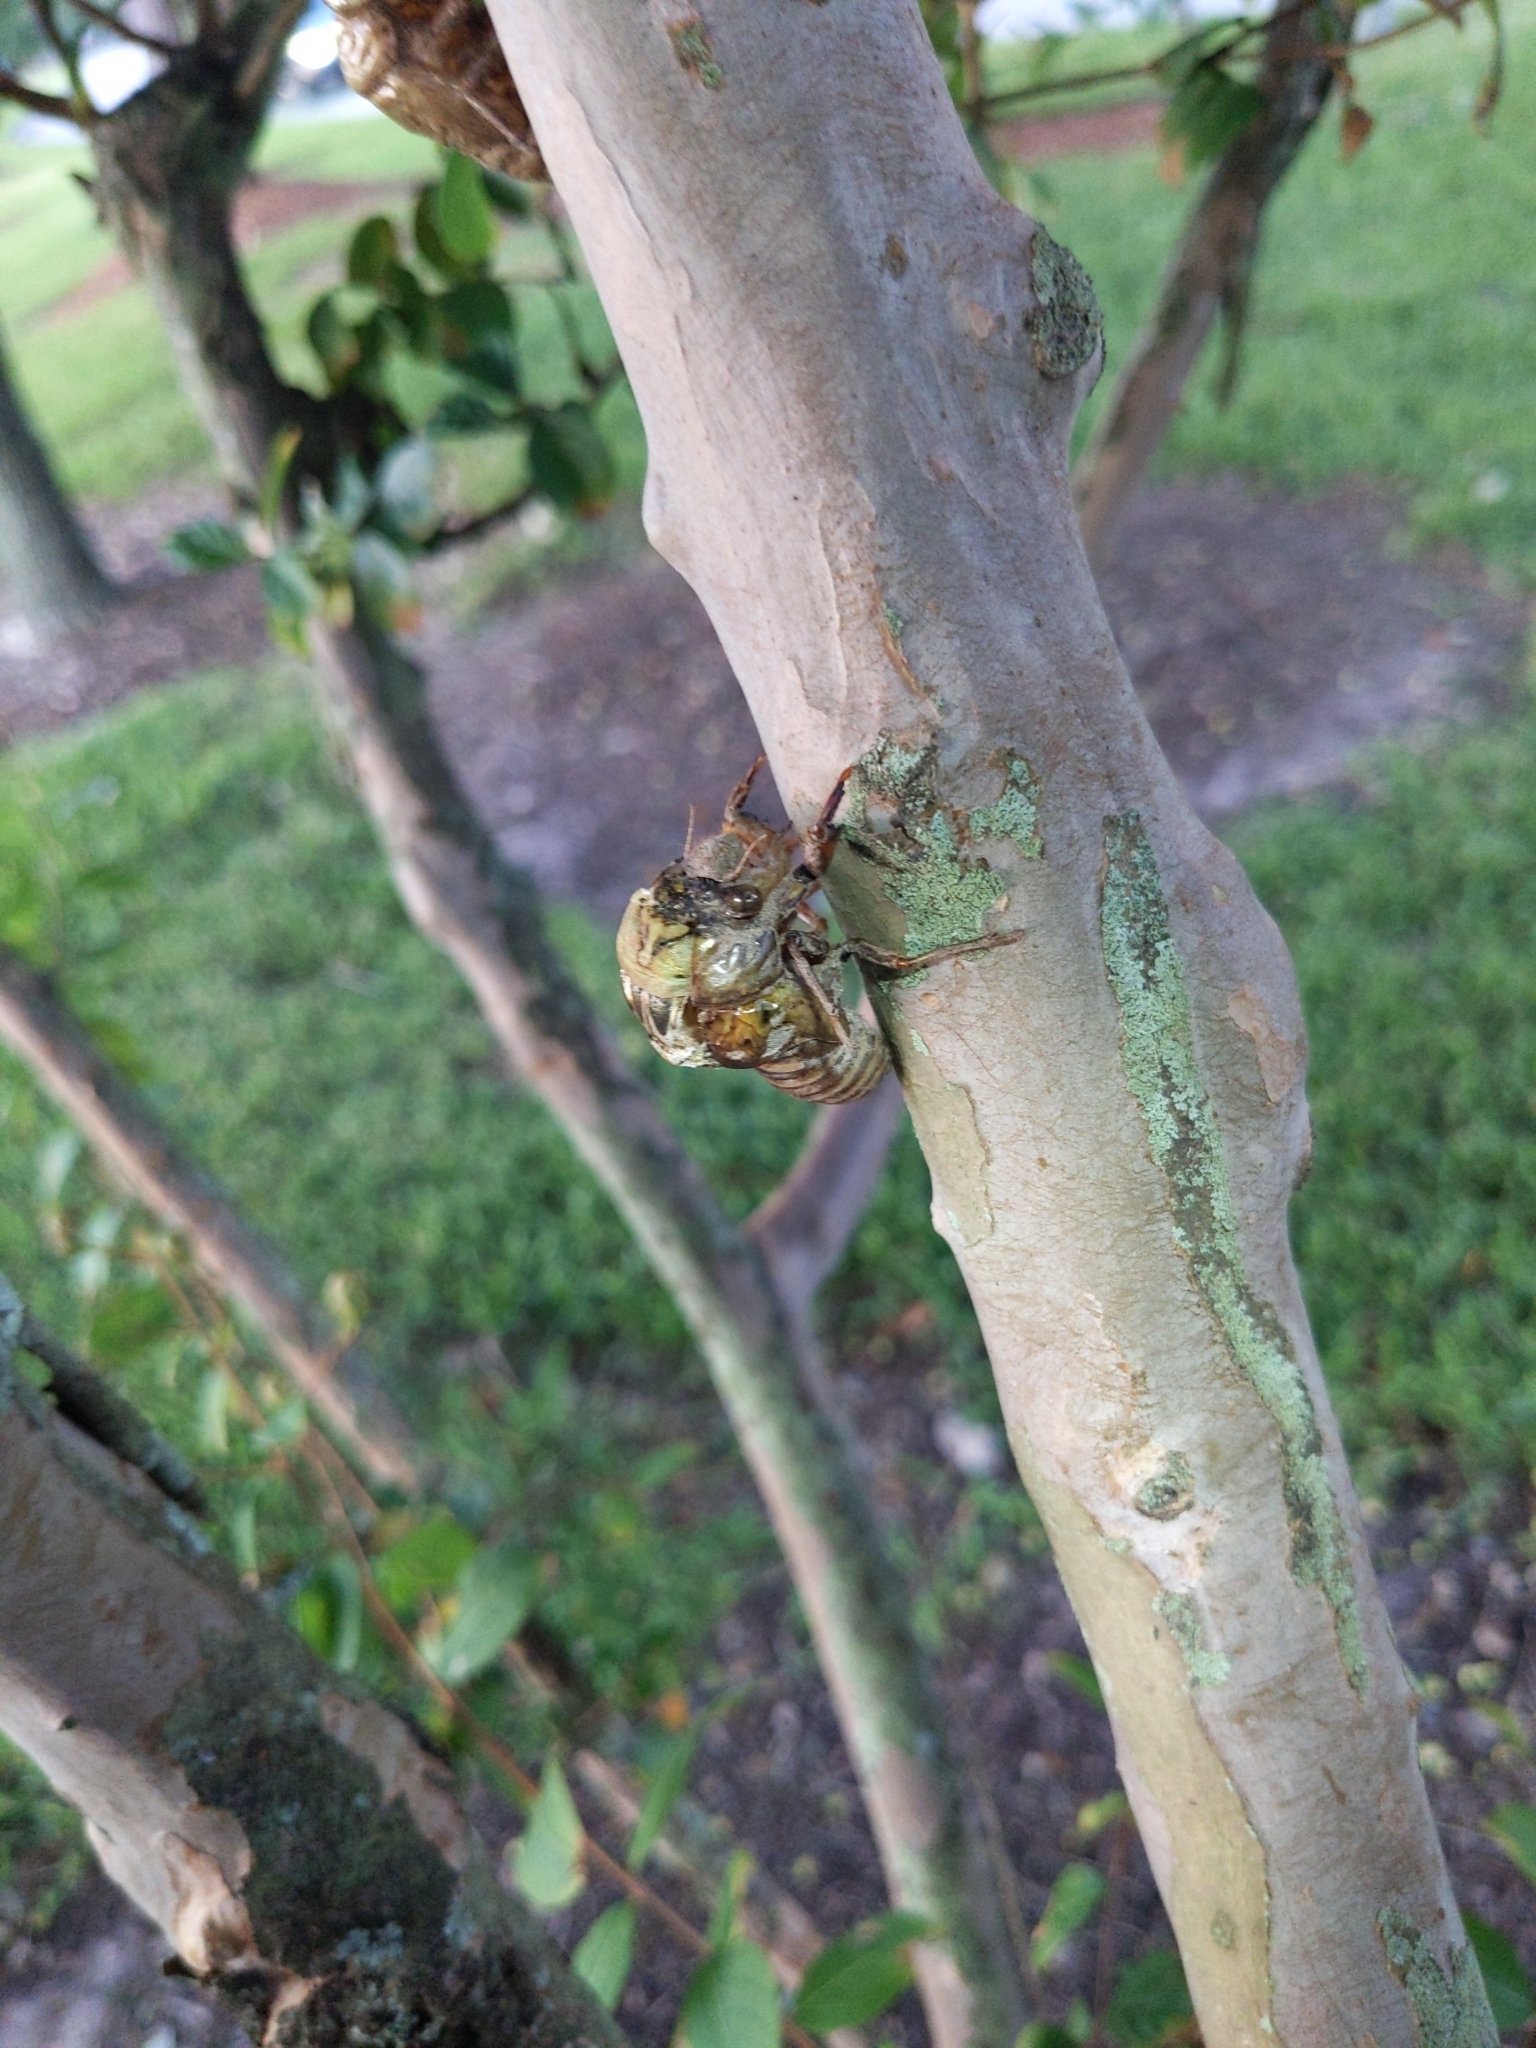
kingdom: Animalia
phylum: Arthropoda
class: Insecta
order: Hemiptera
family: Cicadidae
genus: Megatibicen
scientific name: Megatibicen resh
